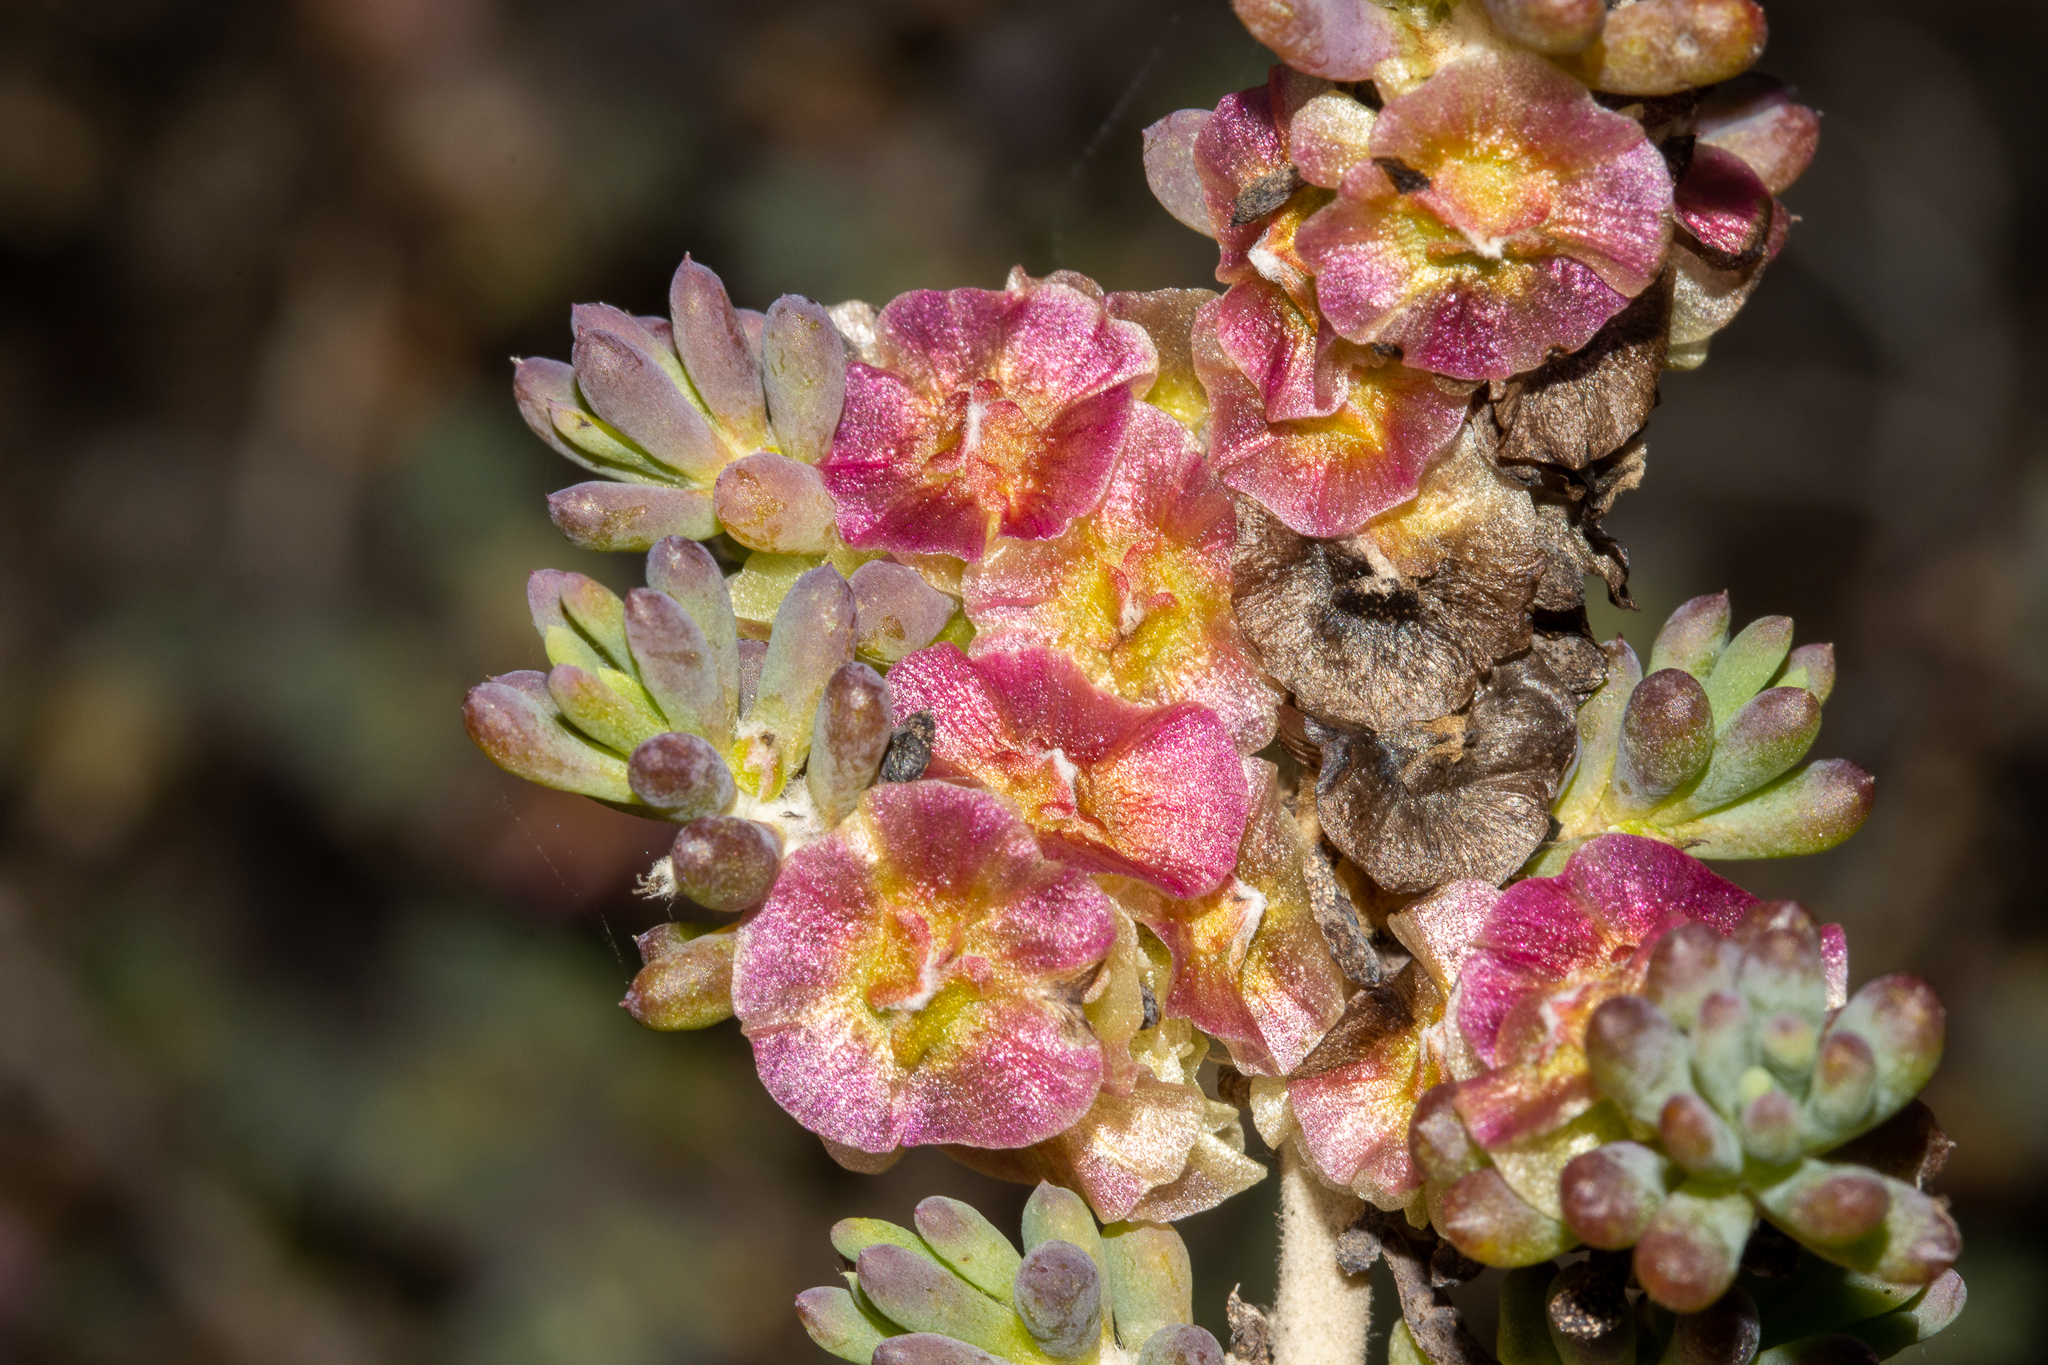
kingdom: Plantae
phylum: Tracheophyta
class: Magnoliopsida
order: Caryophyllales
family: Amaranthaceae
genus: Maireana
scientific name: Maireana erioclada
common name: Rosy bluebush
